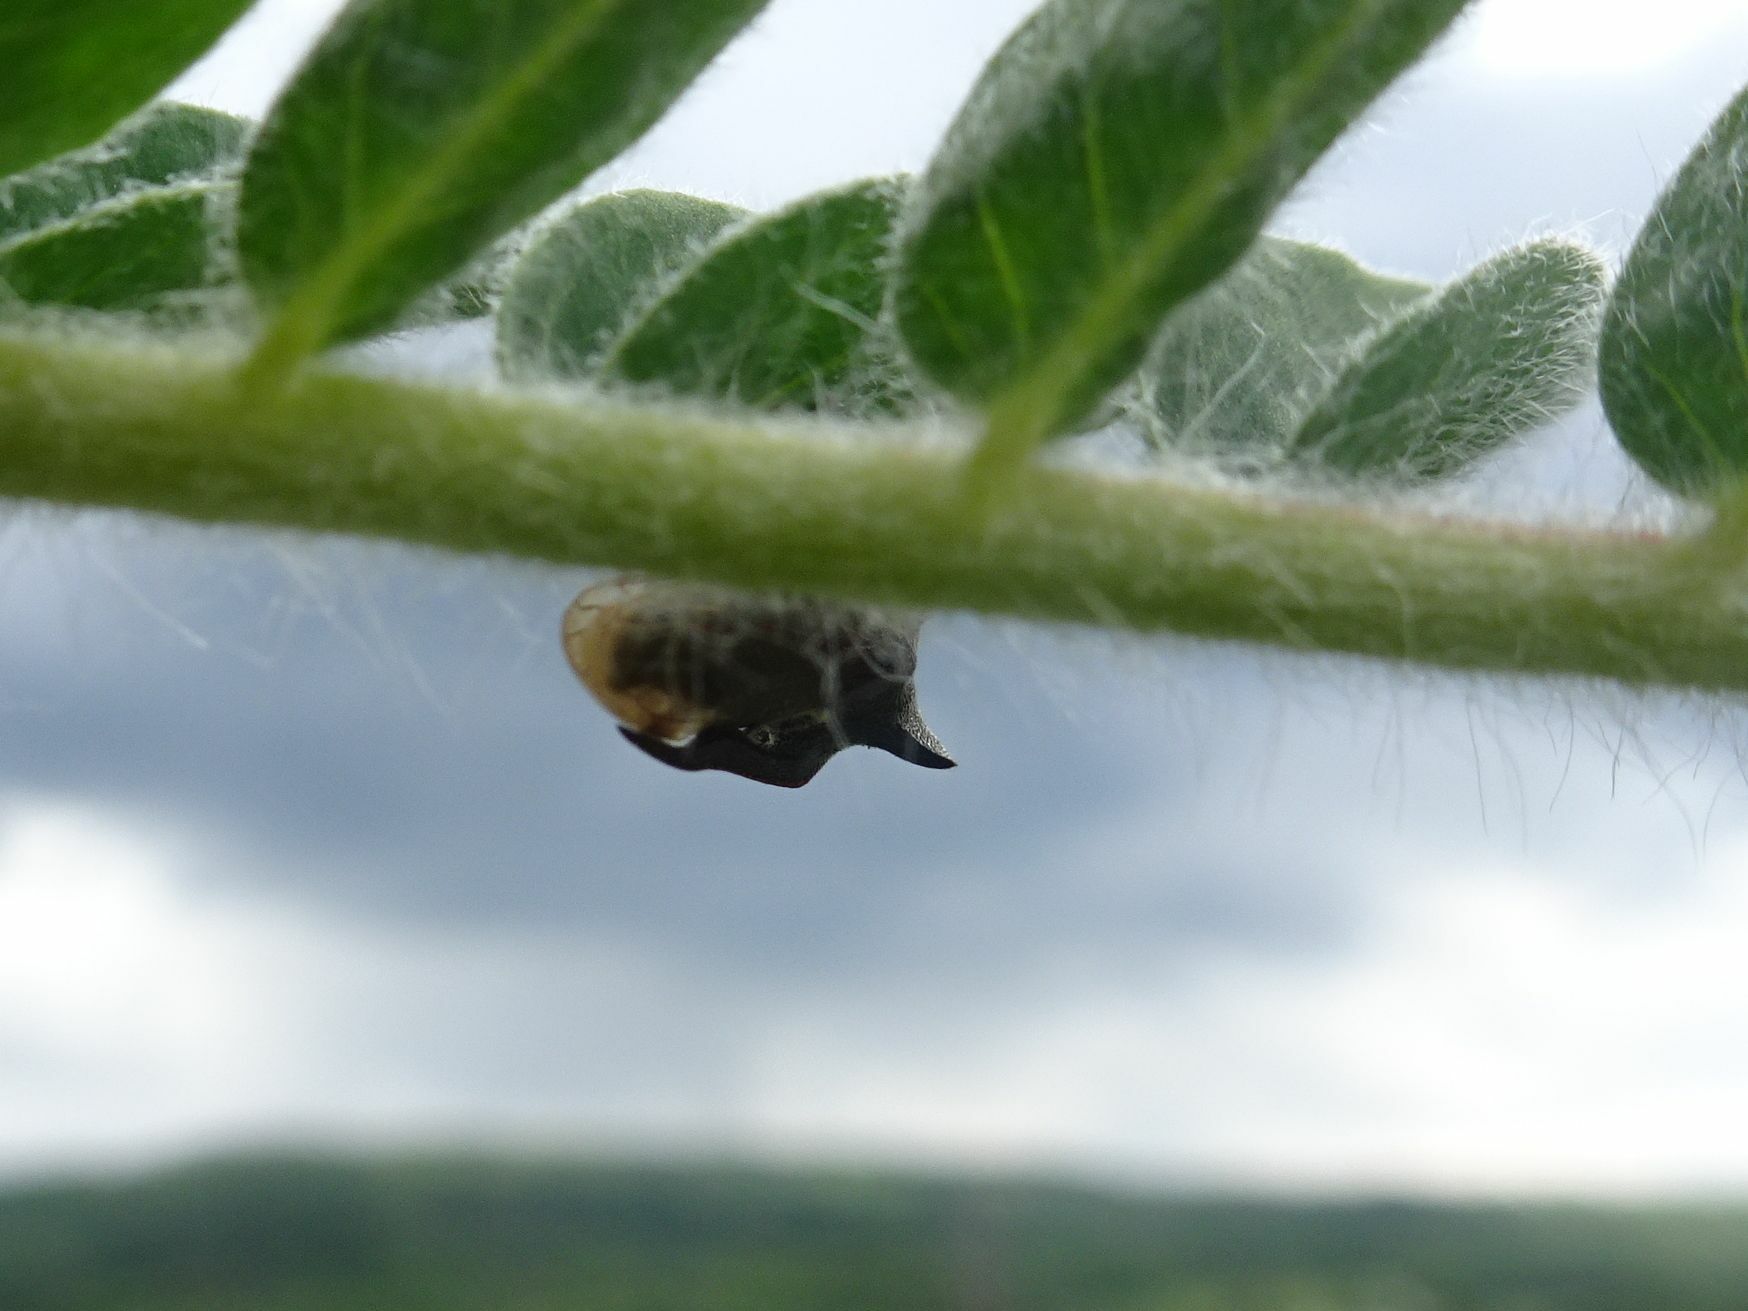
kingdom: Animalia
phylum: Arthropoda
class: Insecta
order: Hemiptera
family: Membracidae
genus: Centrotus
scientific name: Centrotus cornuta
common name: Treehopper
